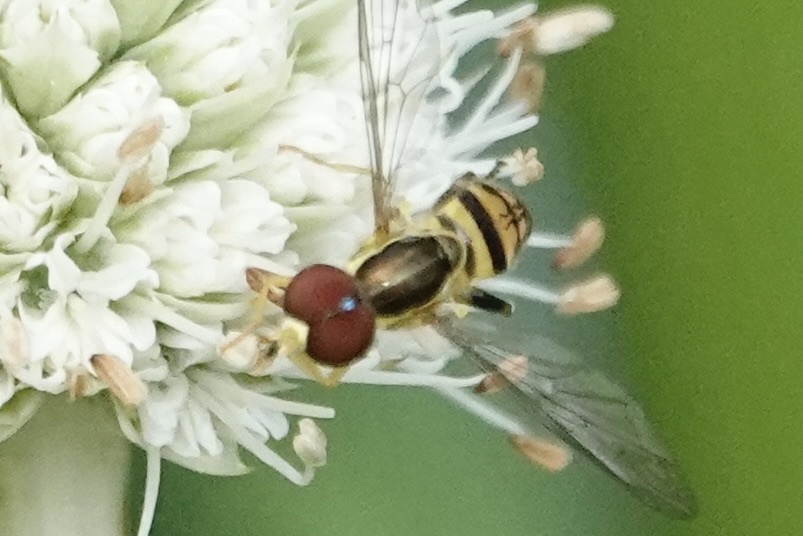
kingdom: Animalia
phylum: Arthropoda
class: Insecta
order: Diptera
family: Syrphidae
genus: Toxomerus
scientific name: Toxomerus geminatus
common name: Eastern calligrapher
